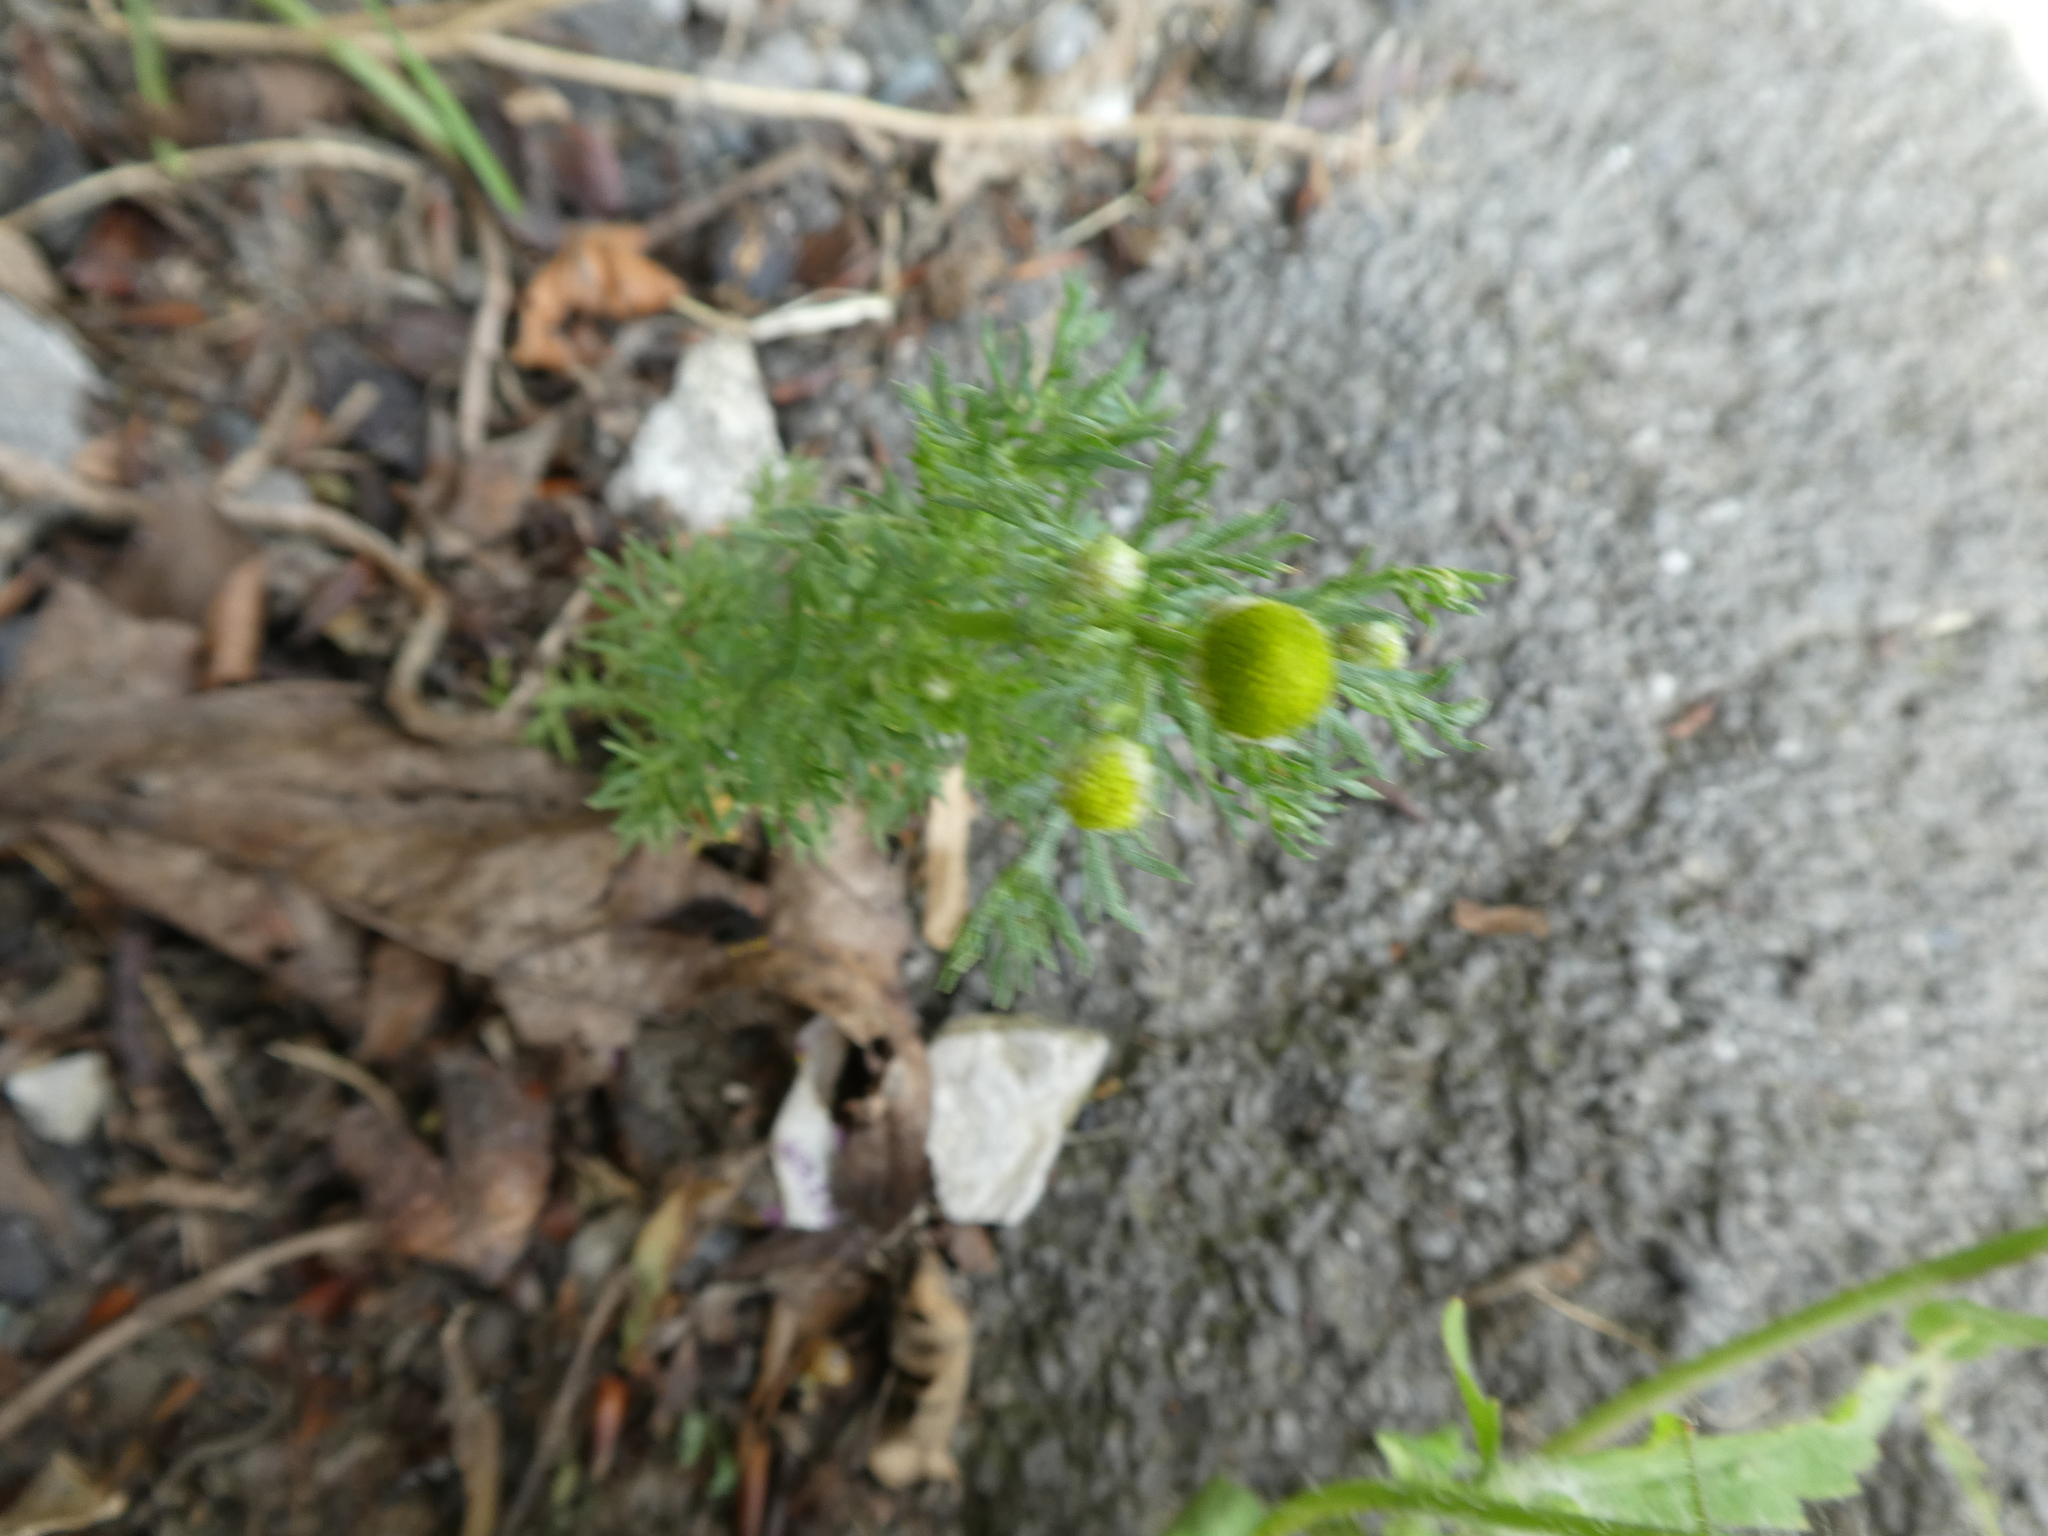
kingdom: Plantae
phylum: Tracheophyta
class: Magnoliopsida
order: Asterales
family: Asteraceae
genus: Matricaria
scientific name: Matricaria discoidea
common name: Disc mayweed
